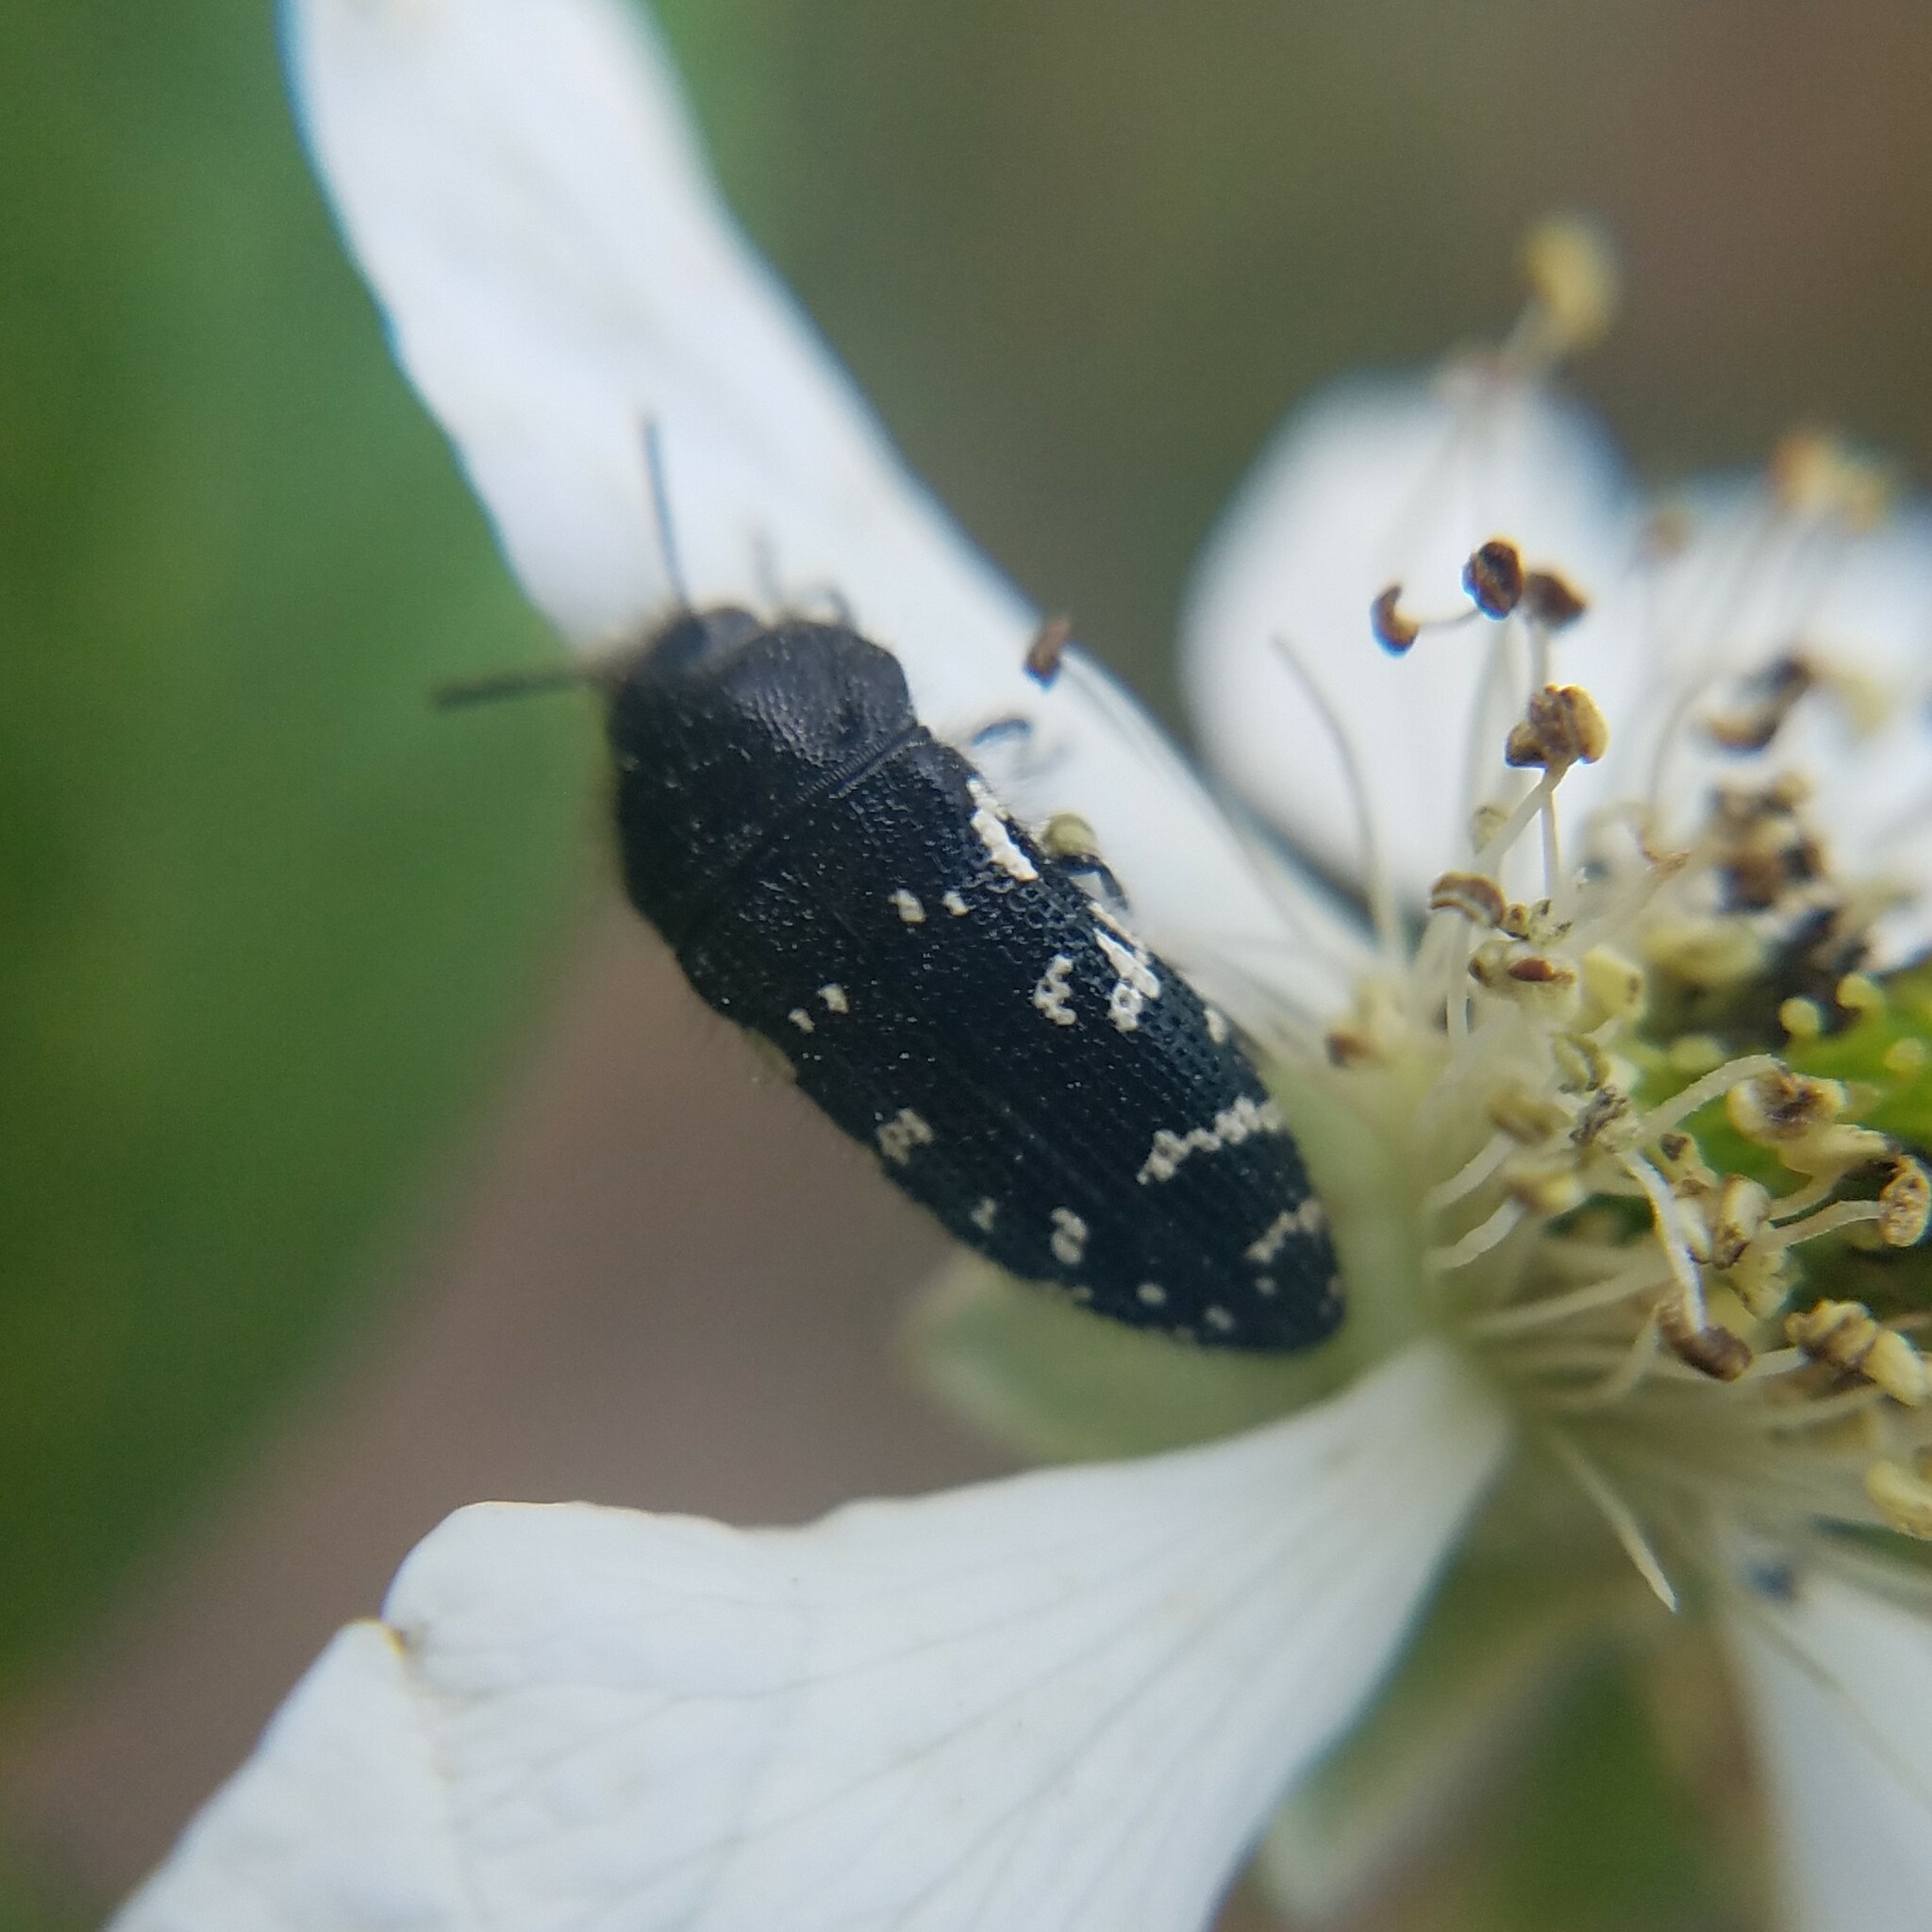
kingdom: Animalia
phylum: Arthropoda
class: Insecta
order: Coleoptera
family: Buprestidae
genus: Acmaeodera
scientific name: Acmaeodera ornata
